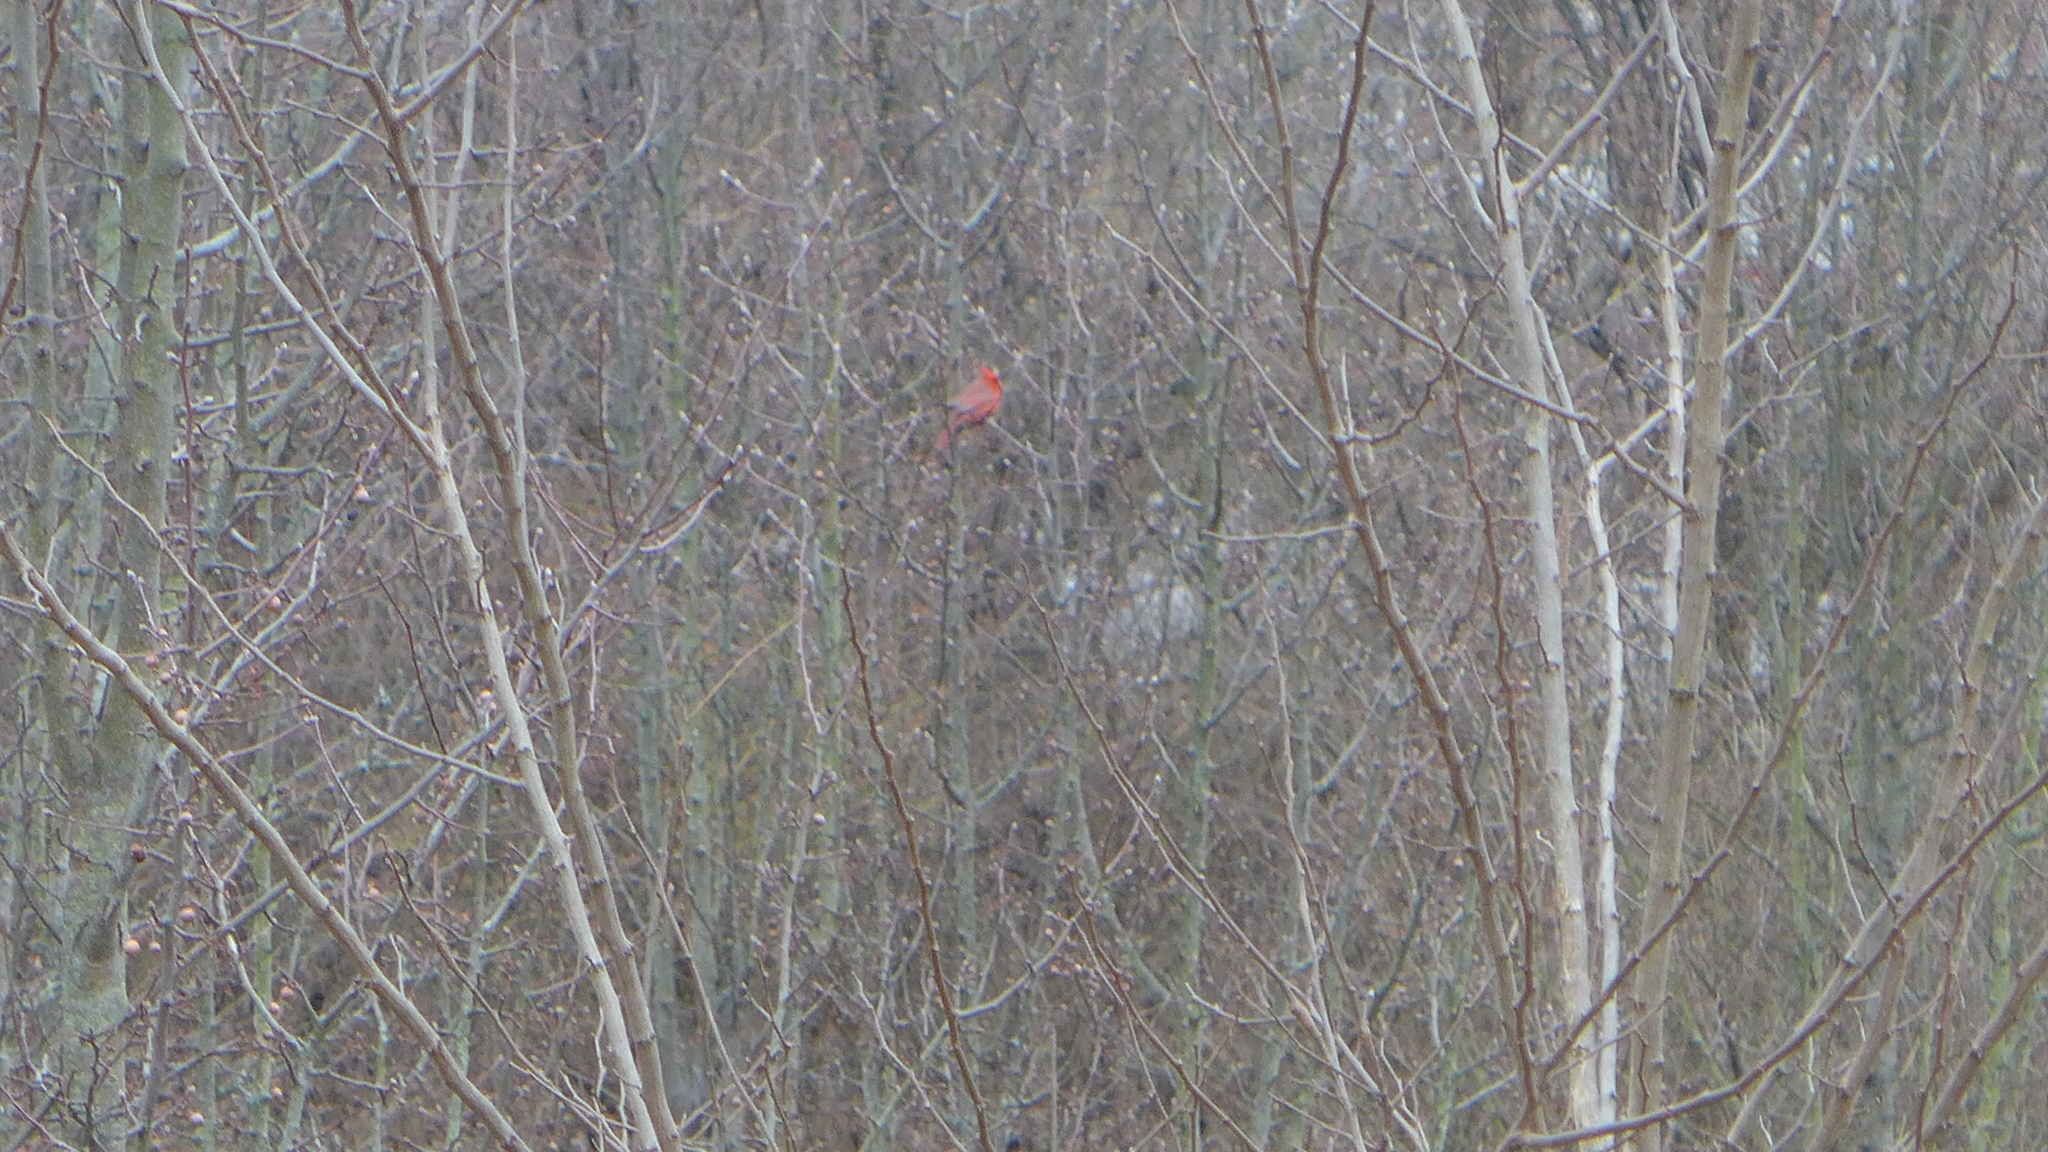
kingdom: Animalia
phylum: Chordata
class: Aves
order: Passeriformes
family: Cardinalidae
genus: Cardinalis
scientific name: Cardinalis cardinalis
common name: Northern cardinal
